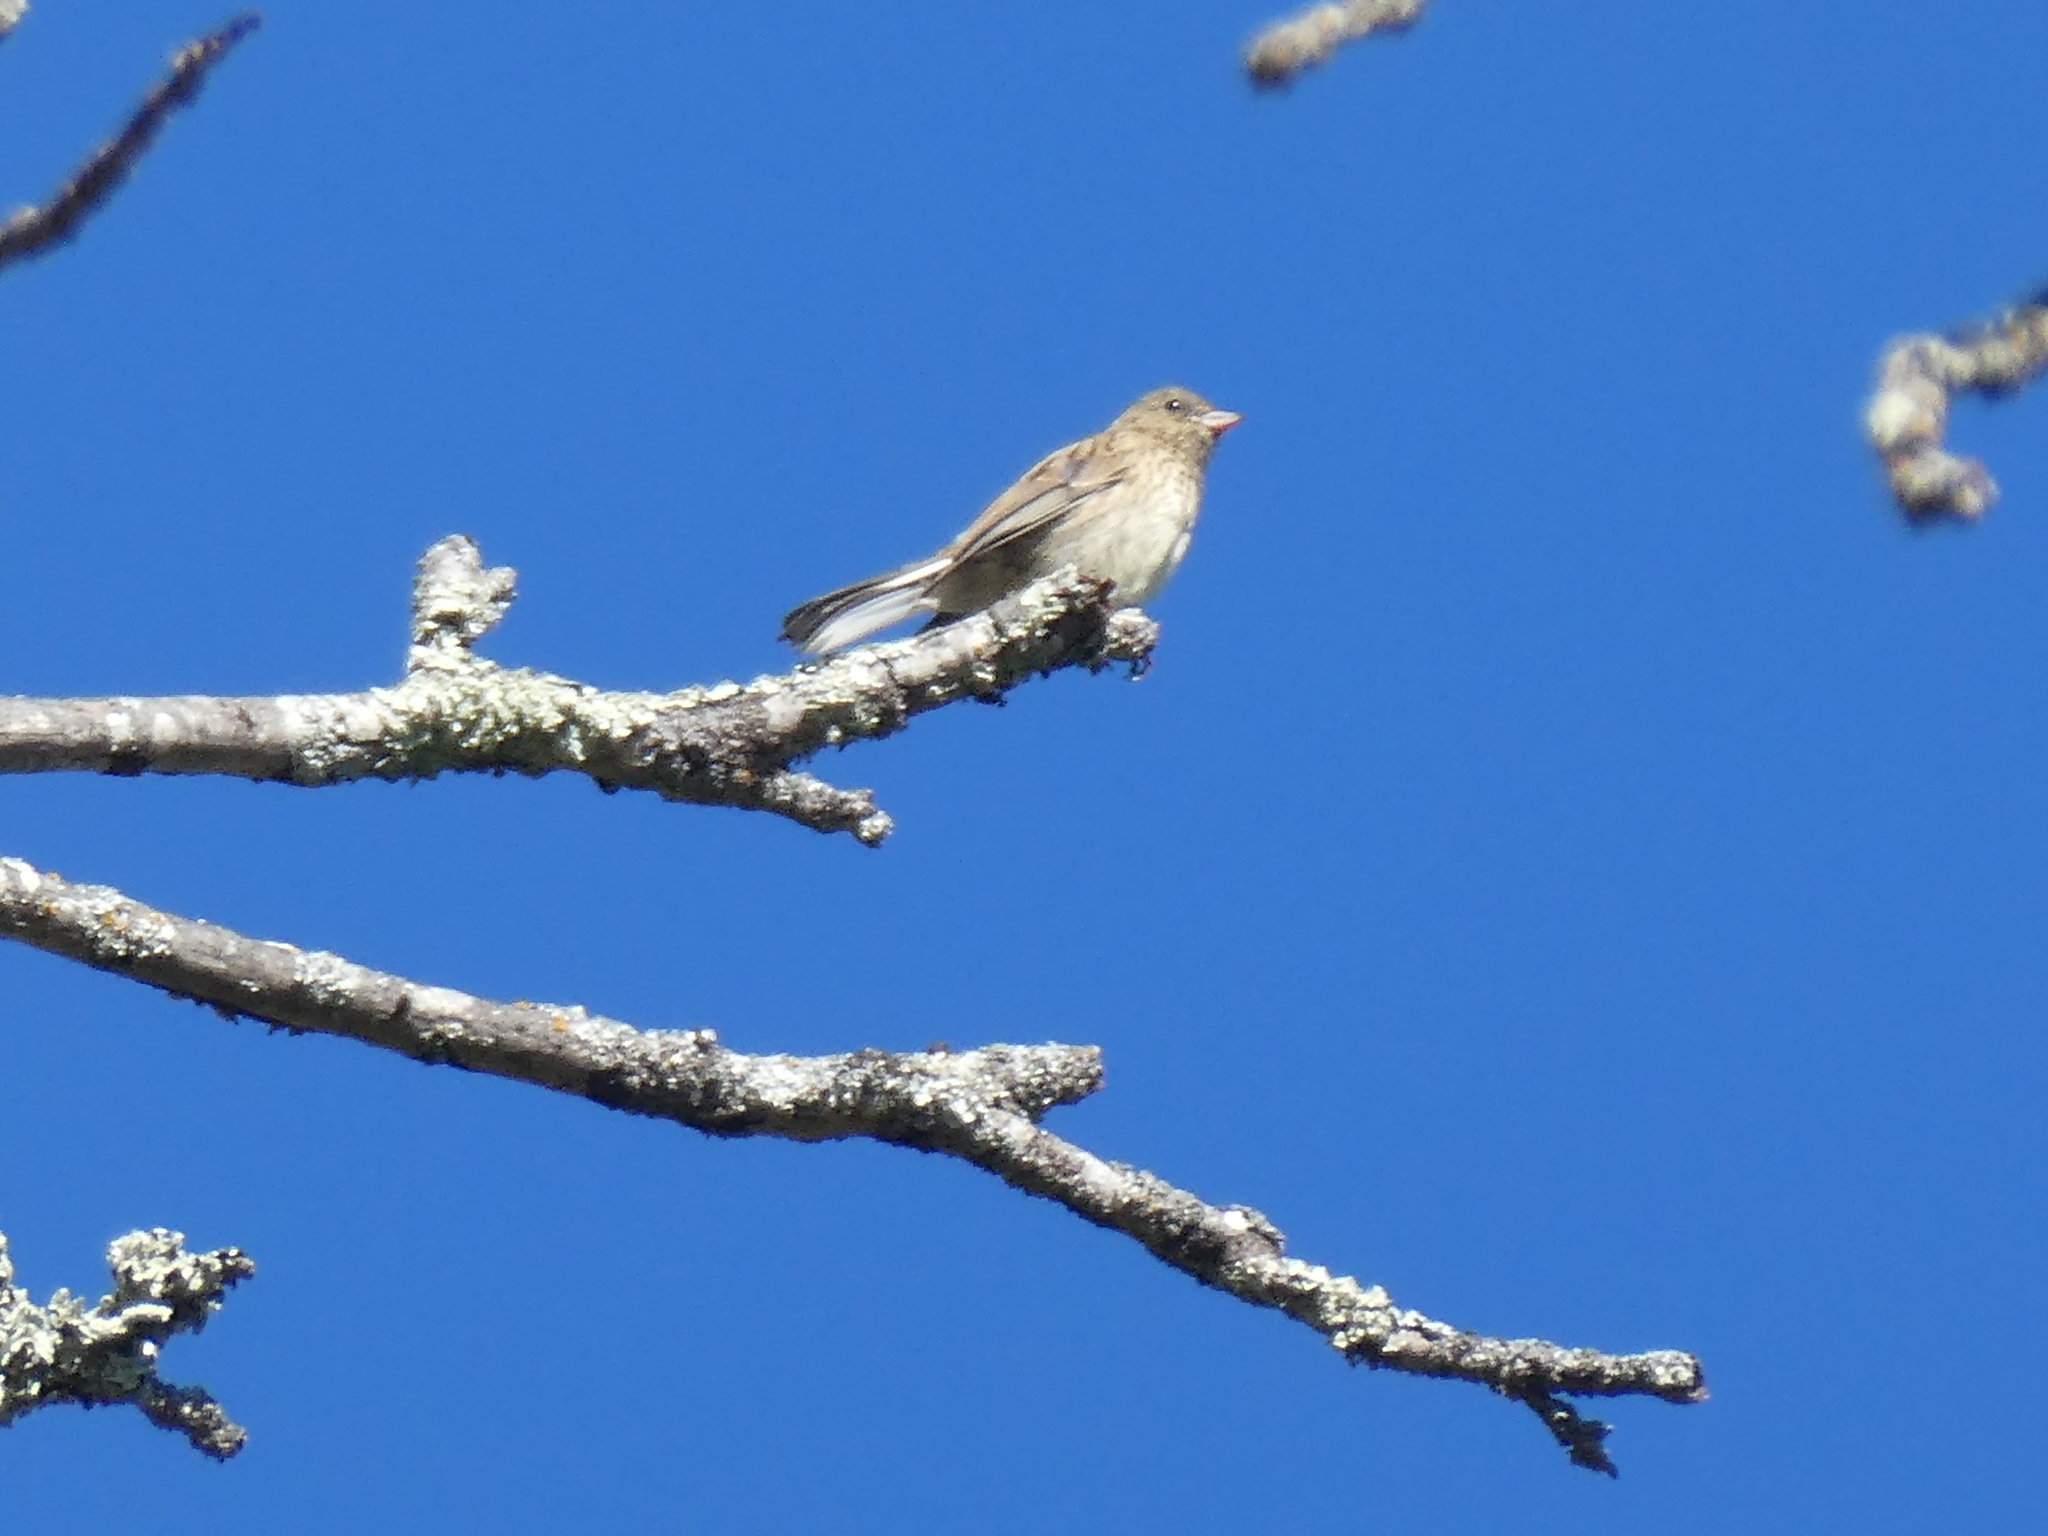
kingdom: Animalia
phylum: Chordata
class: Aves
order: Passeriformes
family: Passerellidae
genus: Junco
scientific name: Junco hyemalis
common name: Dark-eyed junco
